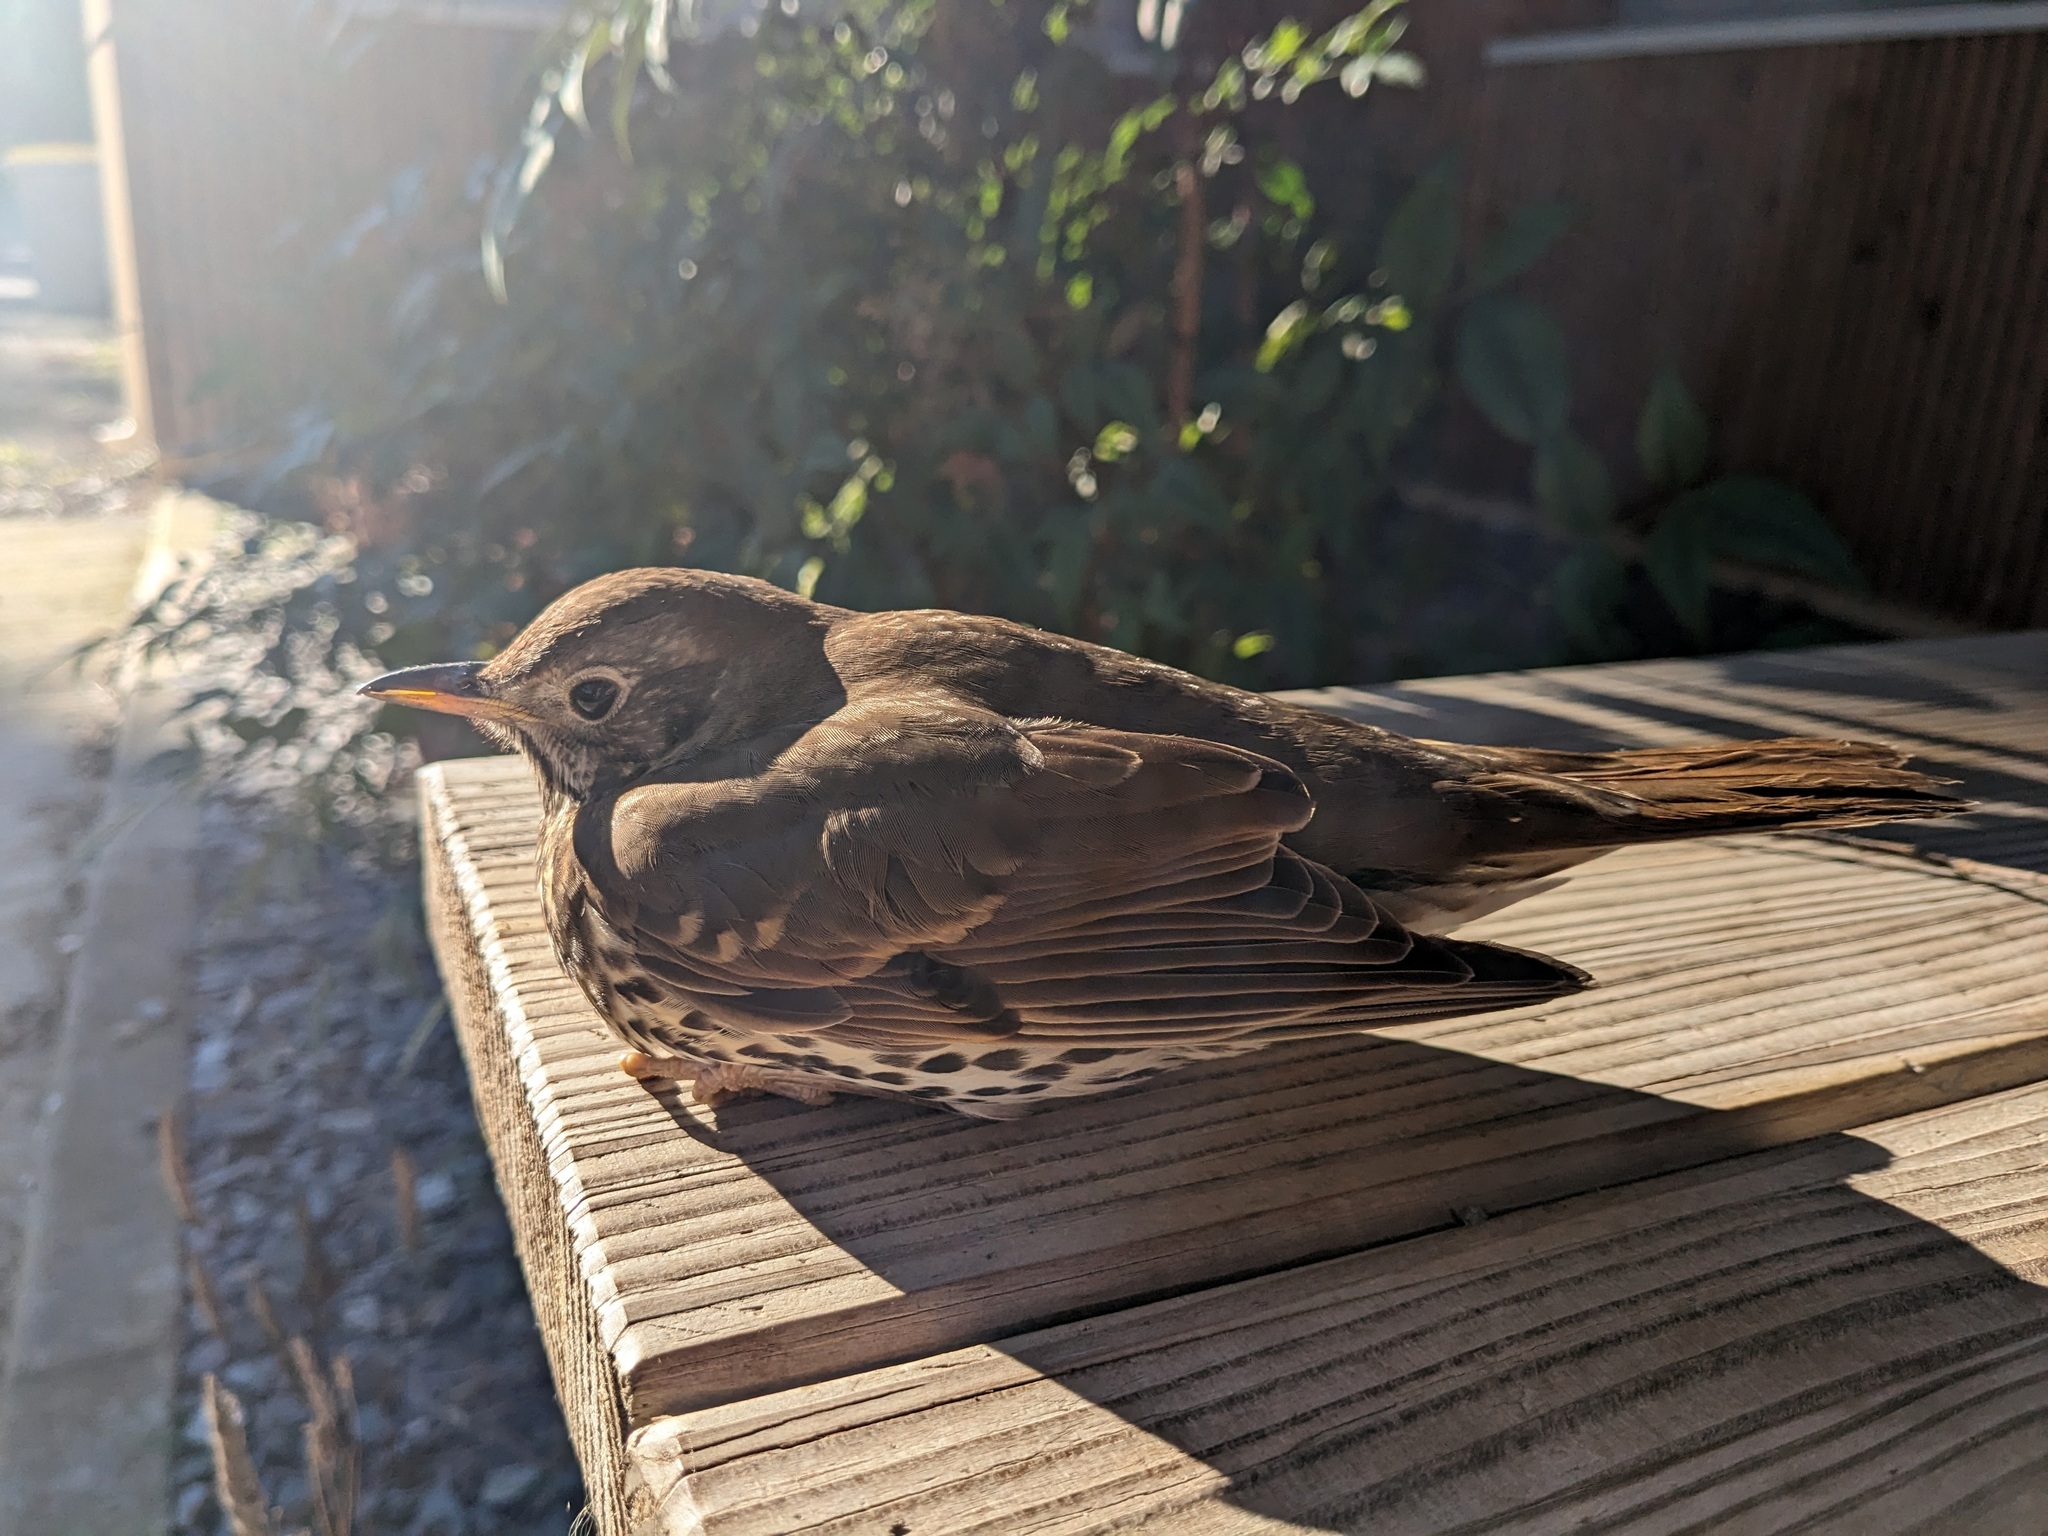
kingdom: Animalia
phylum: Chordata
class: Aves
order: Passeriformes
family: Turdidae
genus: Turdus
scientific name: Turdus philomelos
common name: Song thrush
